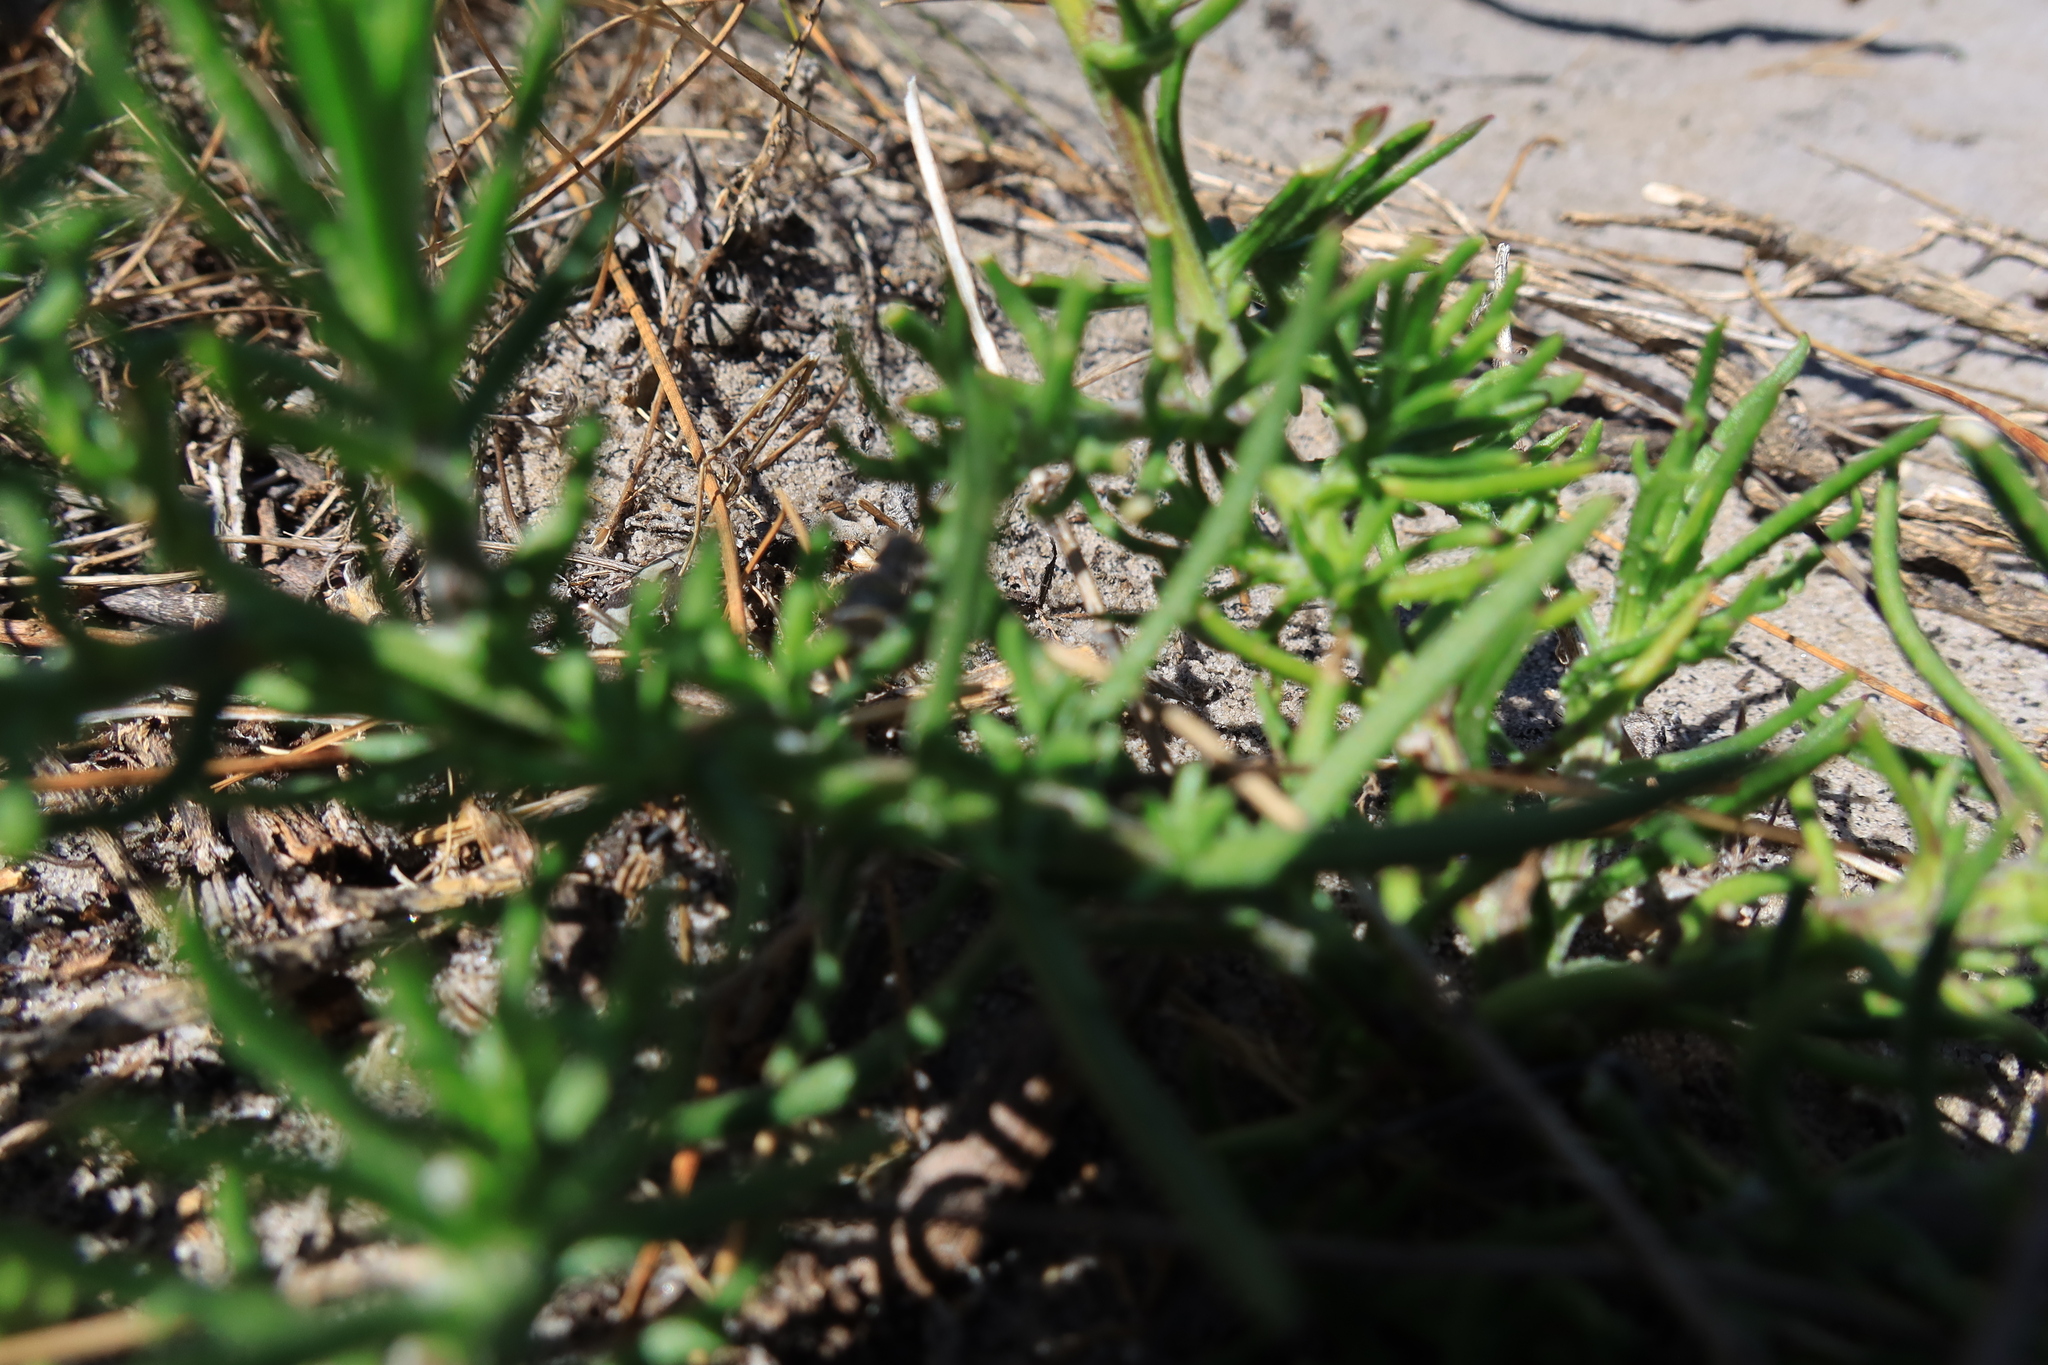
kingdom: Plantae
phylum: Tracheophyta
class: Magnoliopsida
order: Asterales
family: Asteraceae
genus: Senecio
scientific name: Senecio inaequidens
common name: Narrow-leaved ragwort
